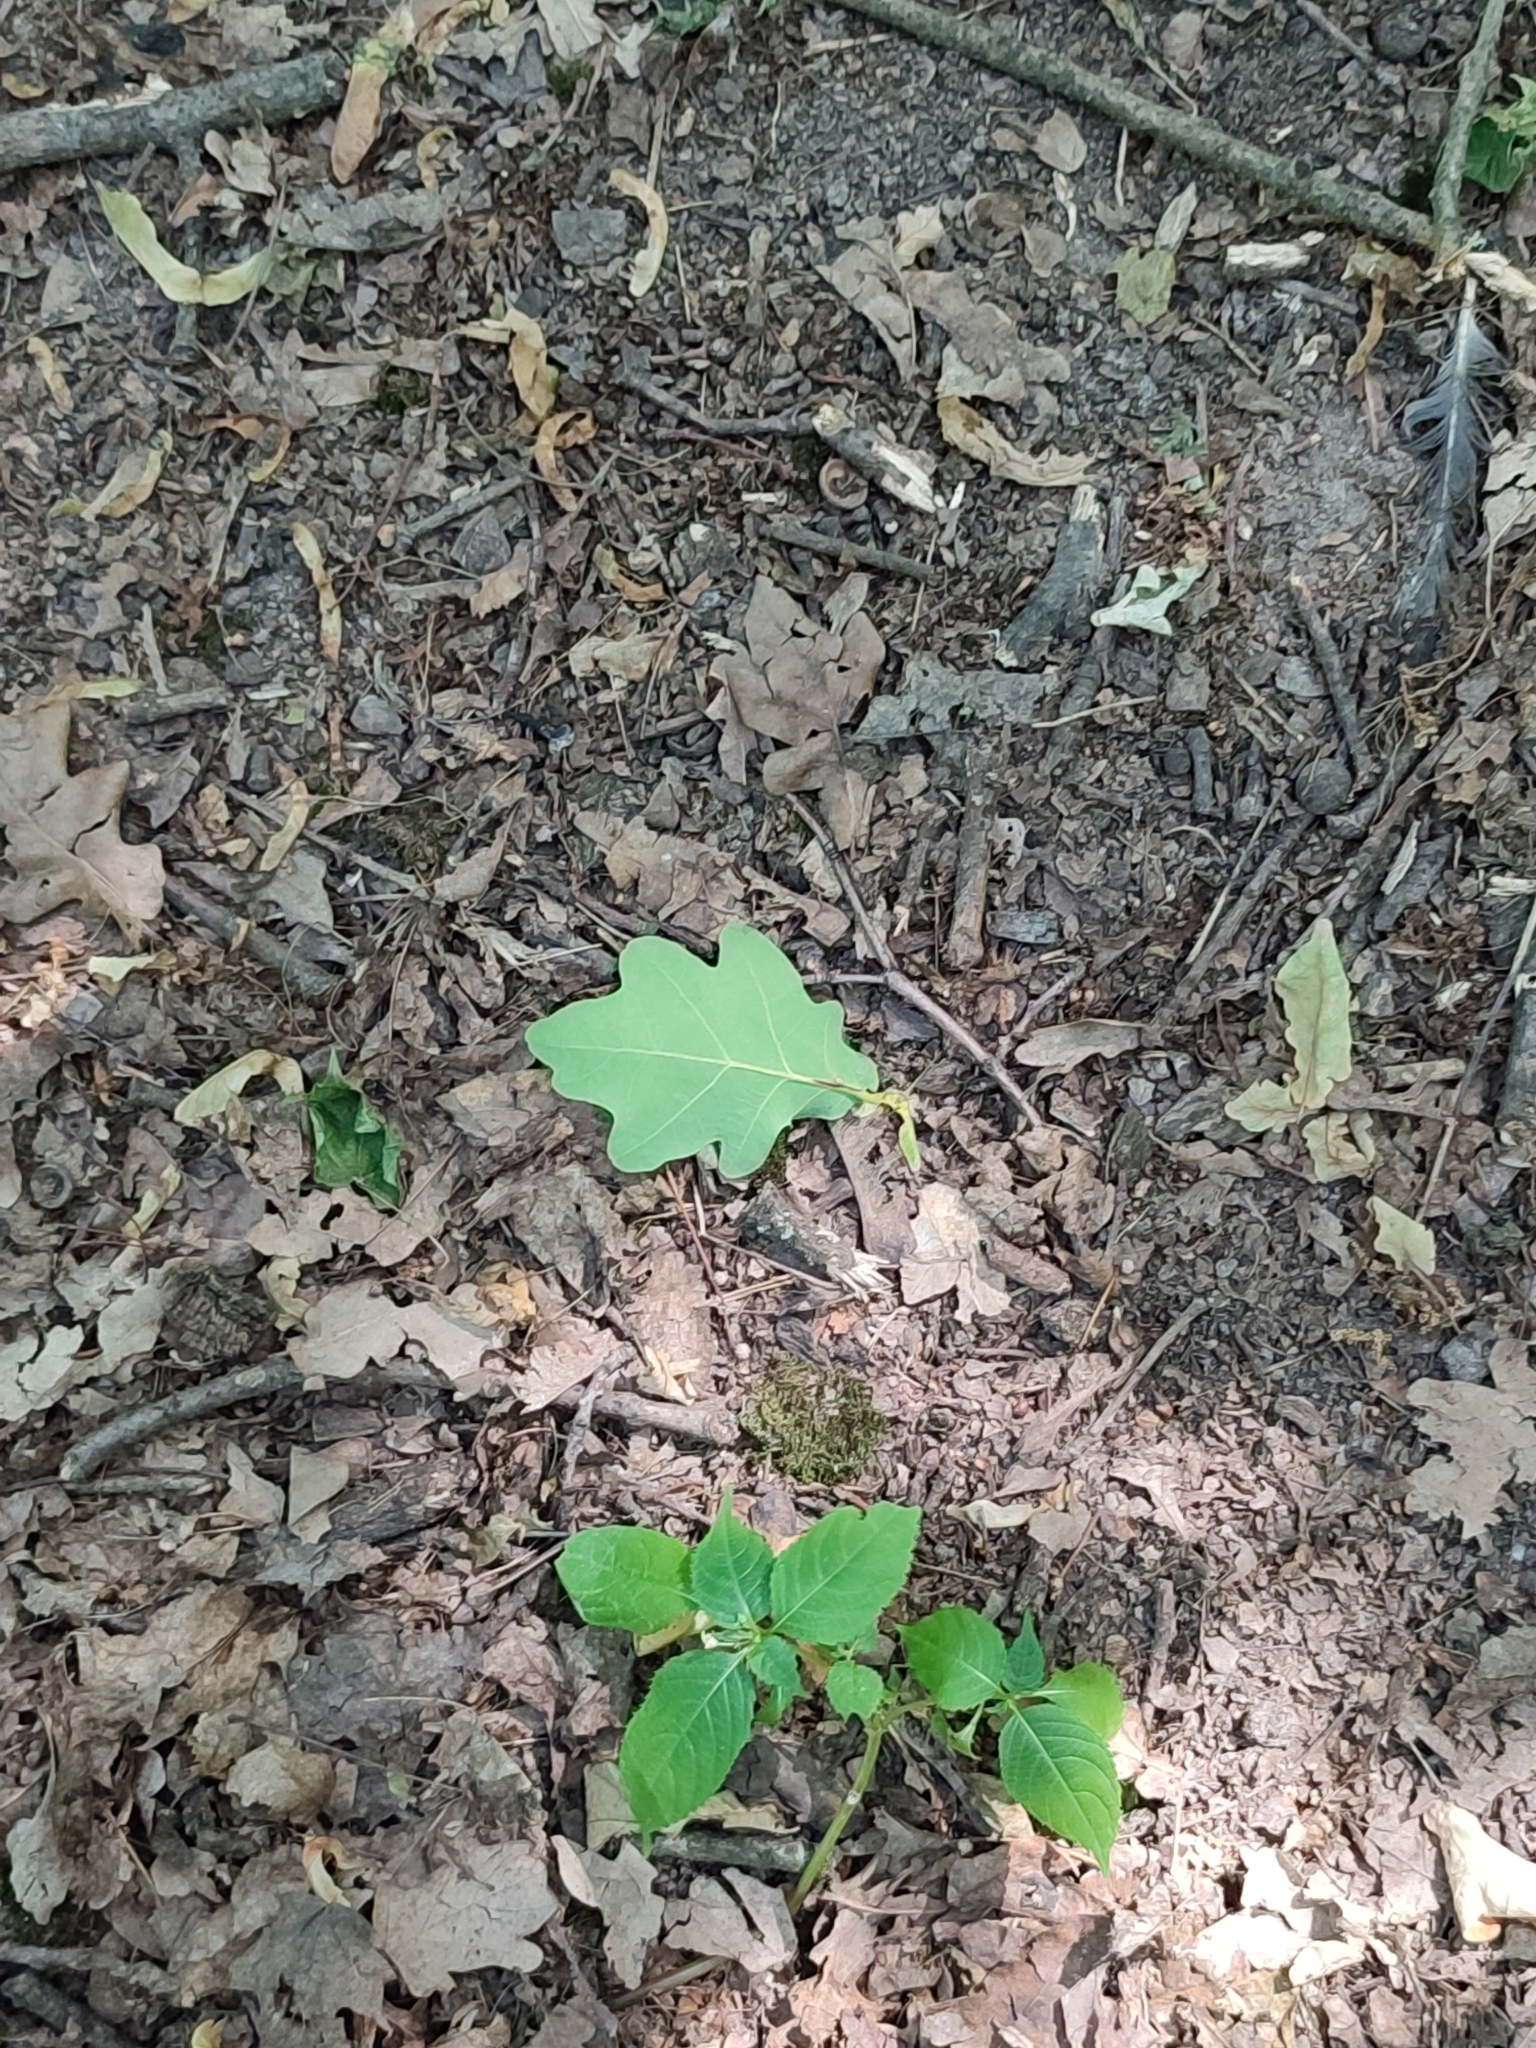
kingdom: Plantae
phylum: Tracheophyta
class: Magnoliopsida
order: Fagales
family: Fagaceae
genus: Quercus
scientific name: Quercus robur
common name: Pedunculate oak
